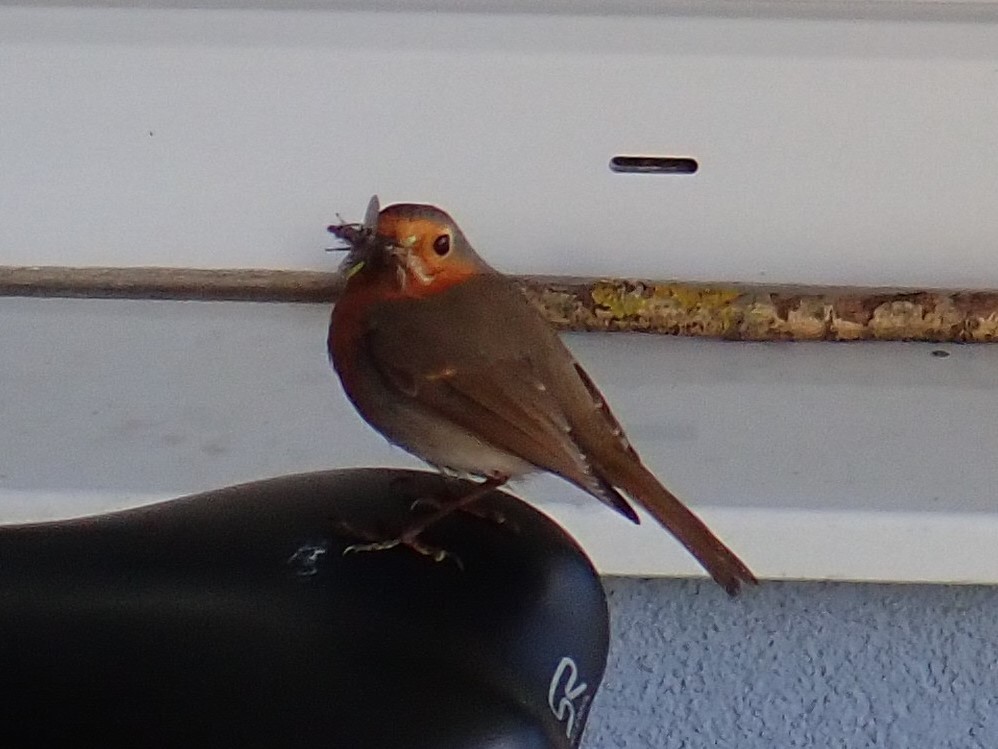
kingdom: Animalia
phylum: Chordata
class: Aves
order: Passeriformes
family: Muscicapidae
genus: Erithacus
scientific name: Erithacus rubecula
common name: European robin
